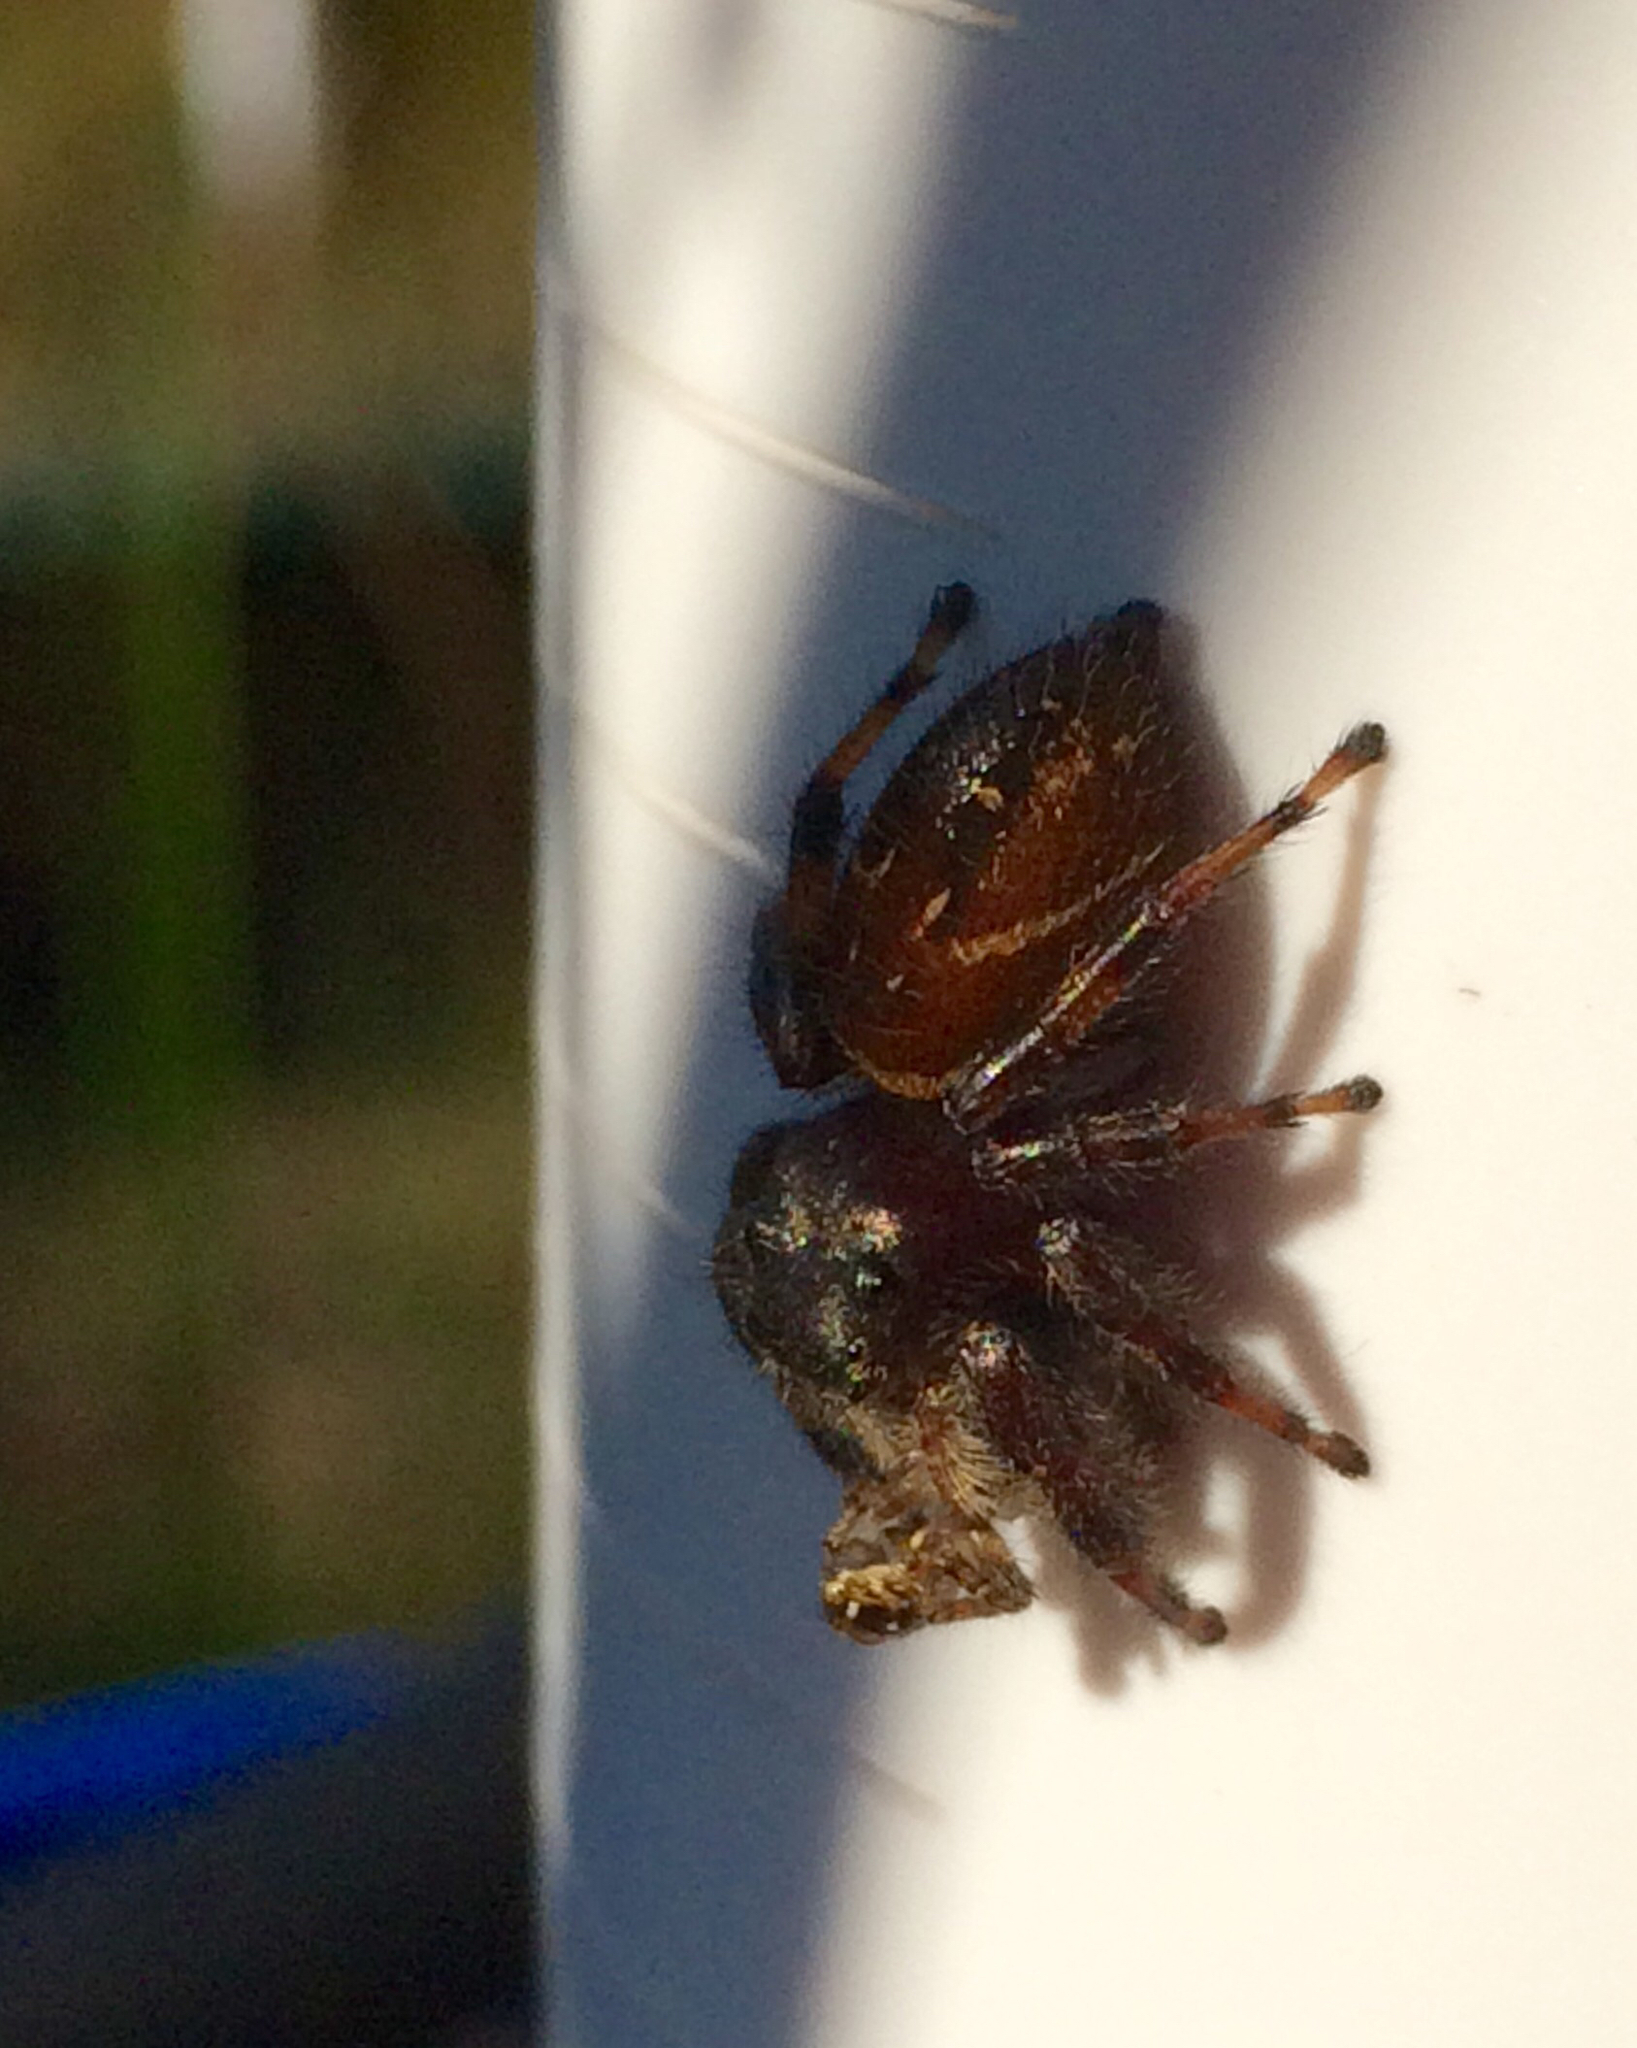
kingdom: Animalia
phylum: Arthropoda
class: Arachnida
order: Araneae
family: Salticidae
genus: Phidippus
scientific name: Phidippus clarus
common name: Brilliant jumping spider
